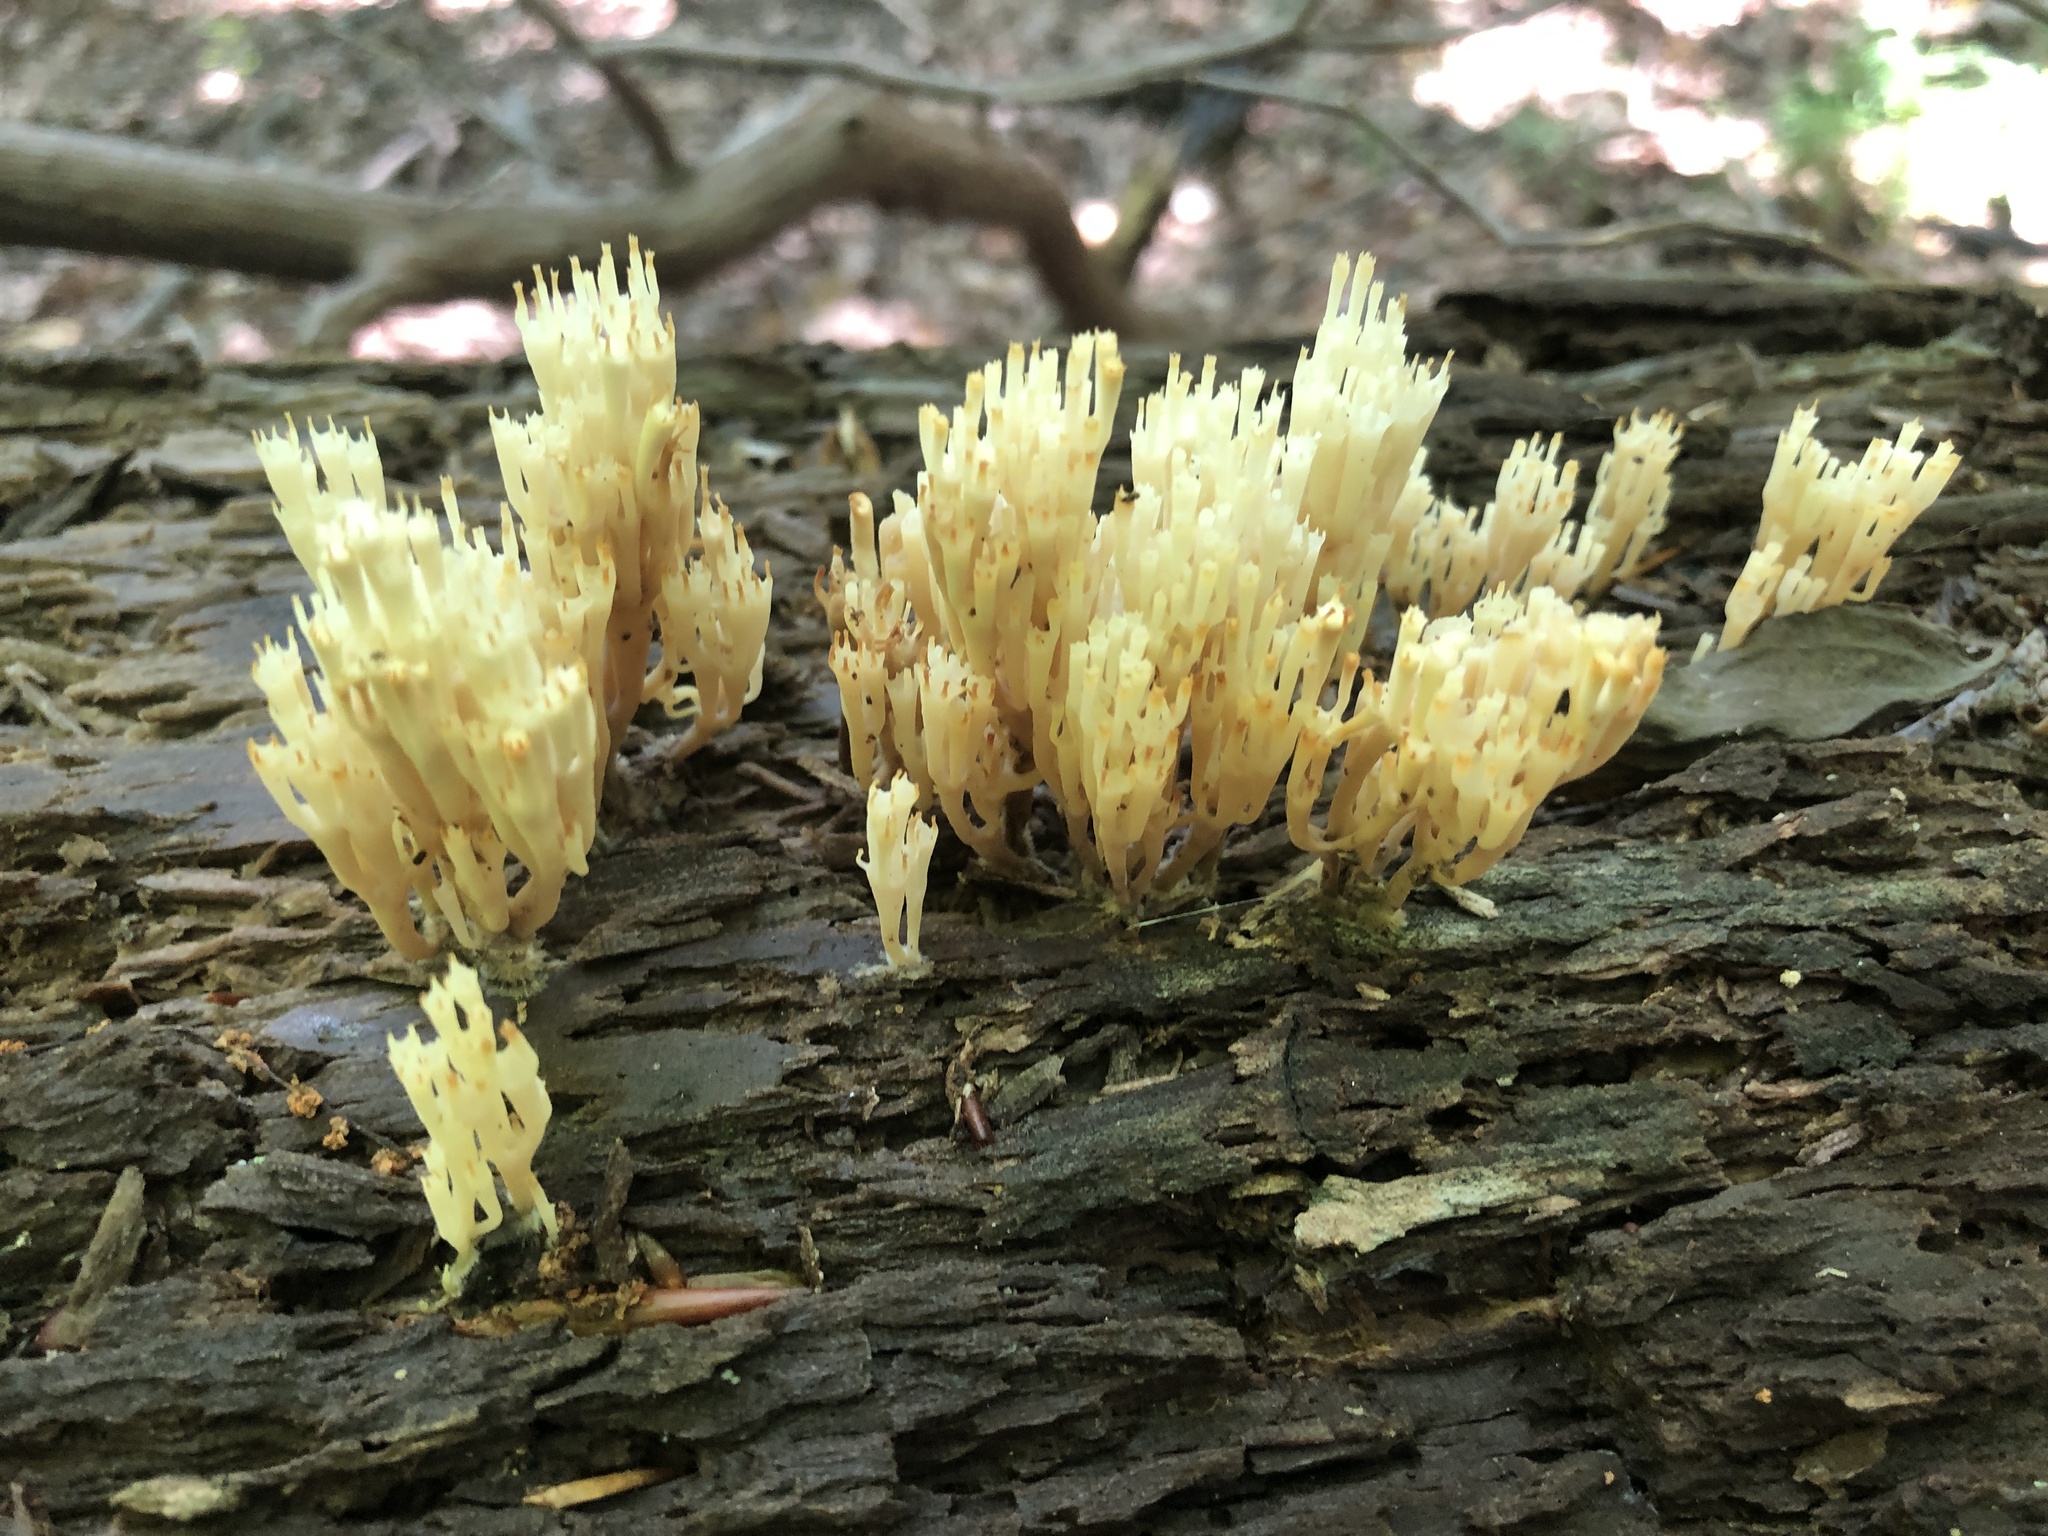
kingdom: Fungi
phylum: Basidiomycota
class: Agaricomycetes
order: Russulales
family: Auriscalpiaceae
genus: Artomyces
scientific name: Artomyces pyxidatus
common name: Crown-tipped coral fungus
